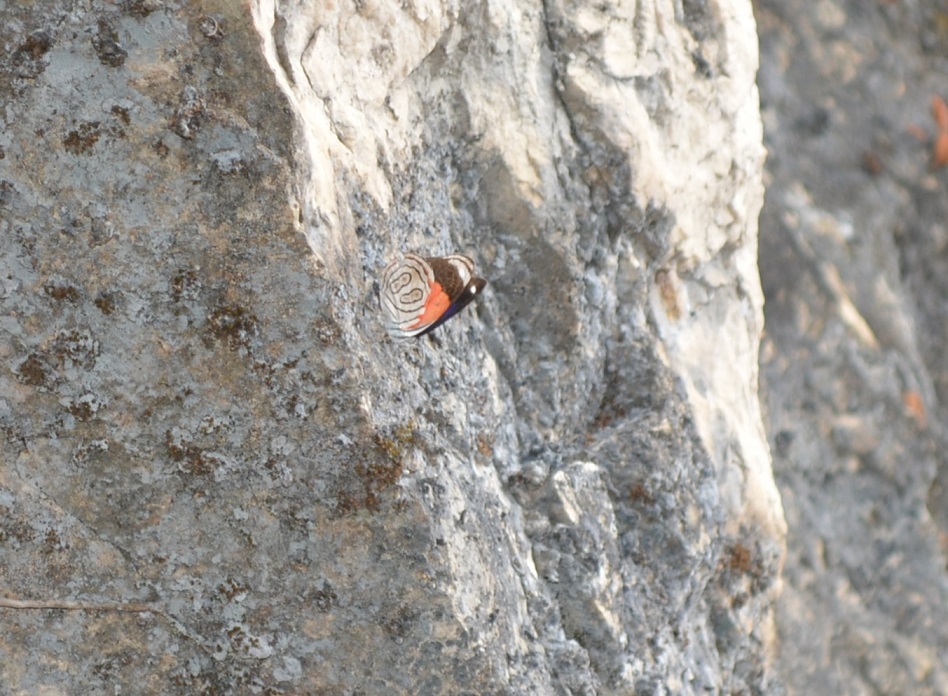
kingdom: Animalia
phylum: Arthropoda
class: Insecta
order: Lepidoptera
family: Nymphalidae
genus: Diaethria
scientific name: Diaethria astala
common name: Navy eighty-eight
